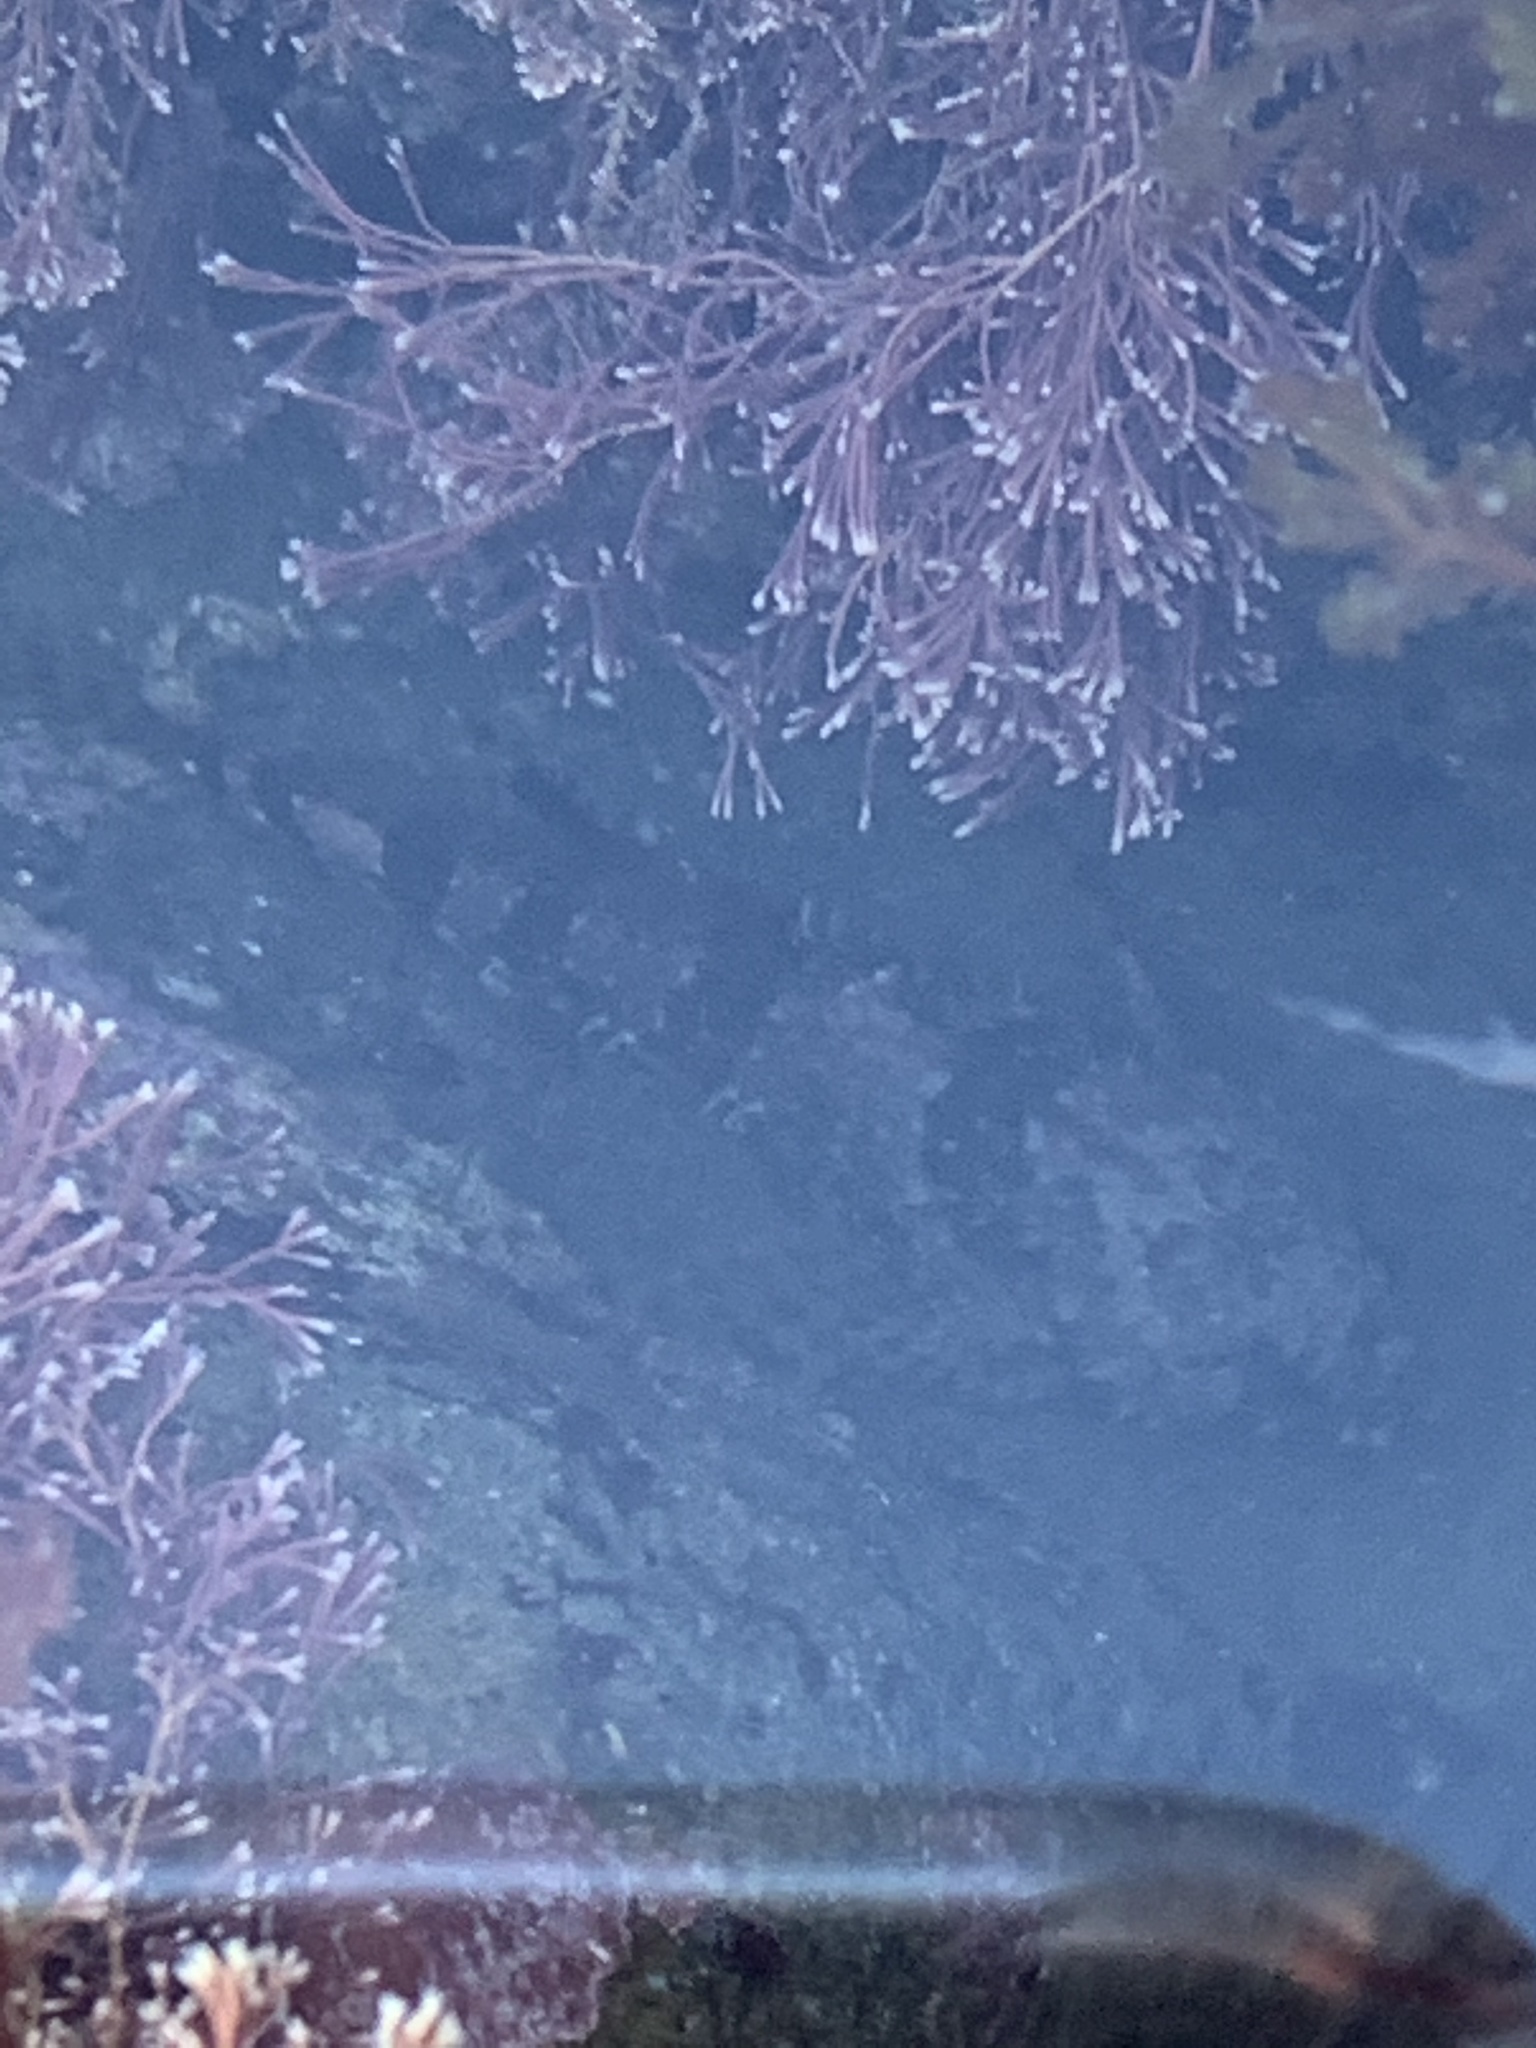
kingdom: Animalia
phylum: Chordata
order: Scorpaeniformes
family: Cottidae
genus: Clinocottus
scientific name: Clinocottus analis
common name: Woolly sculpin
